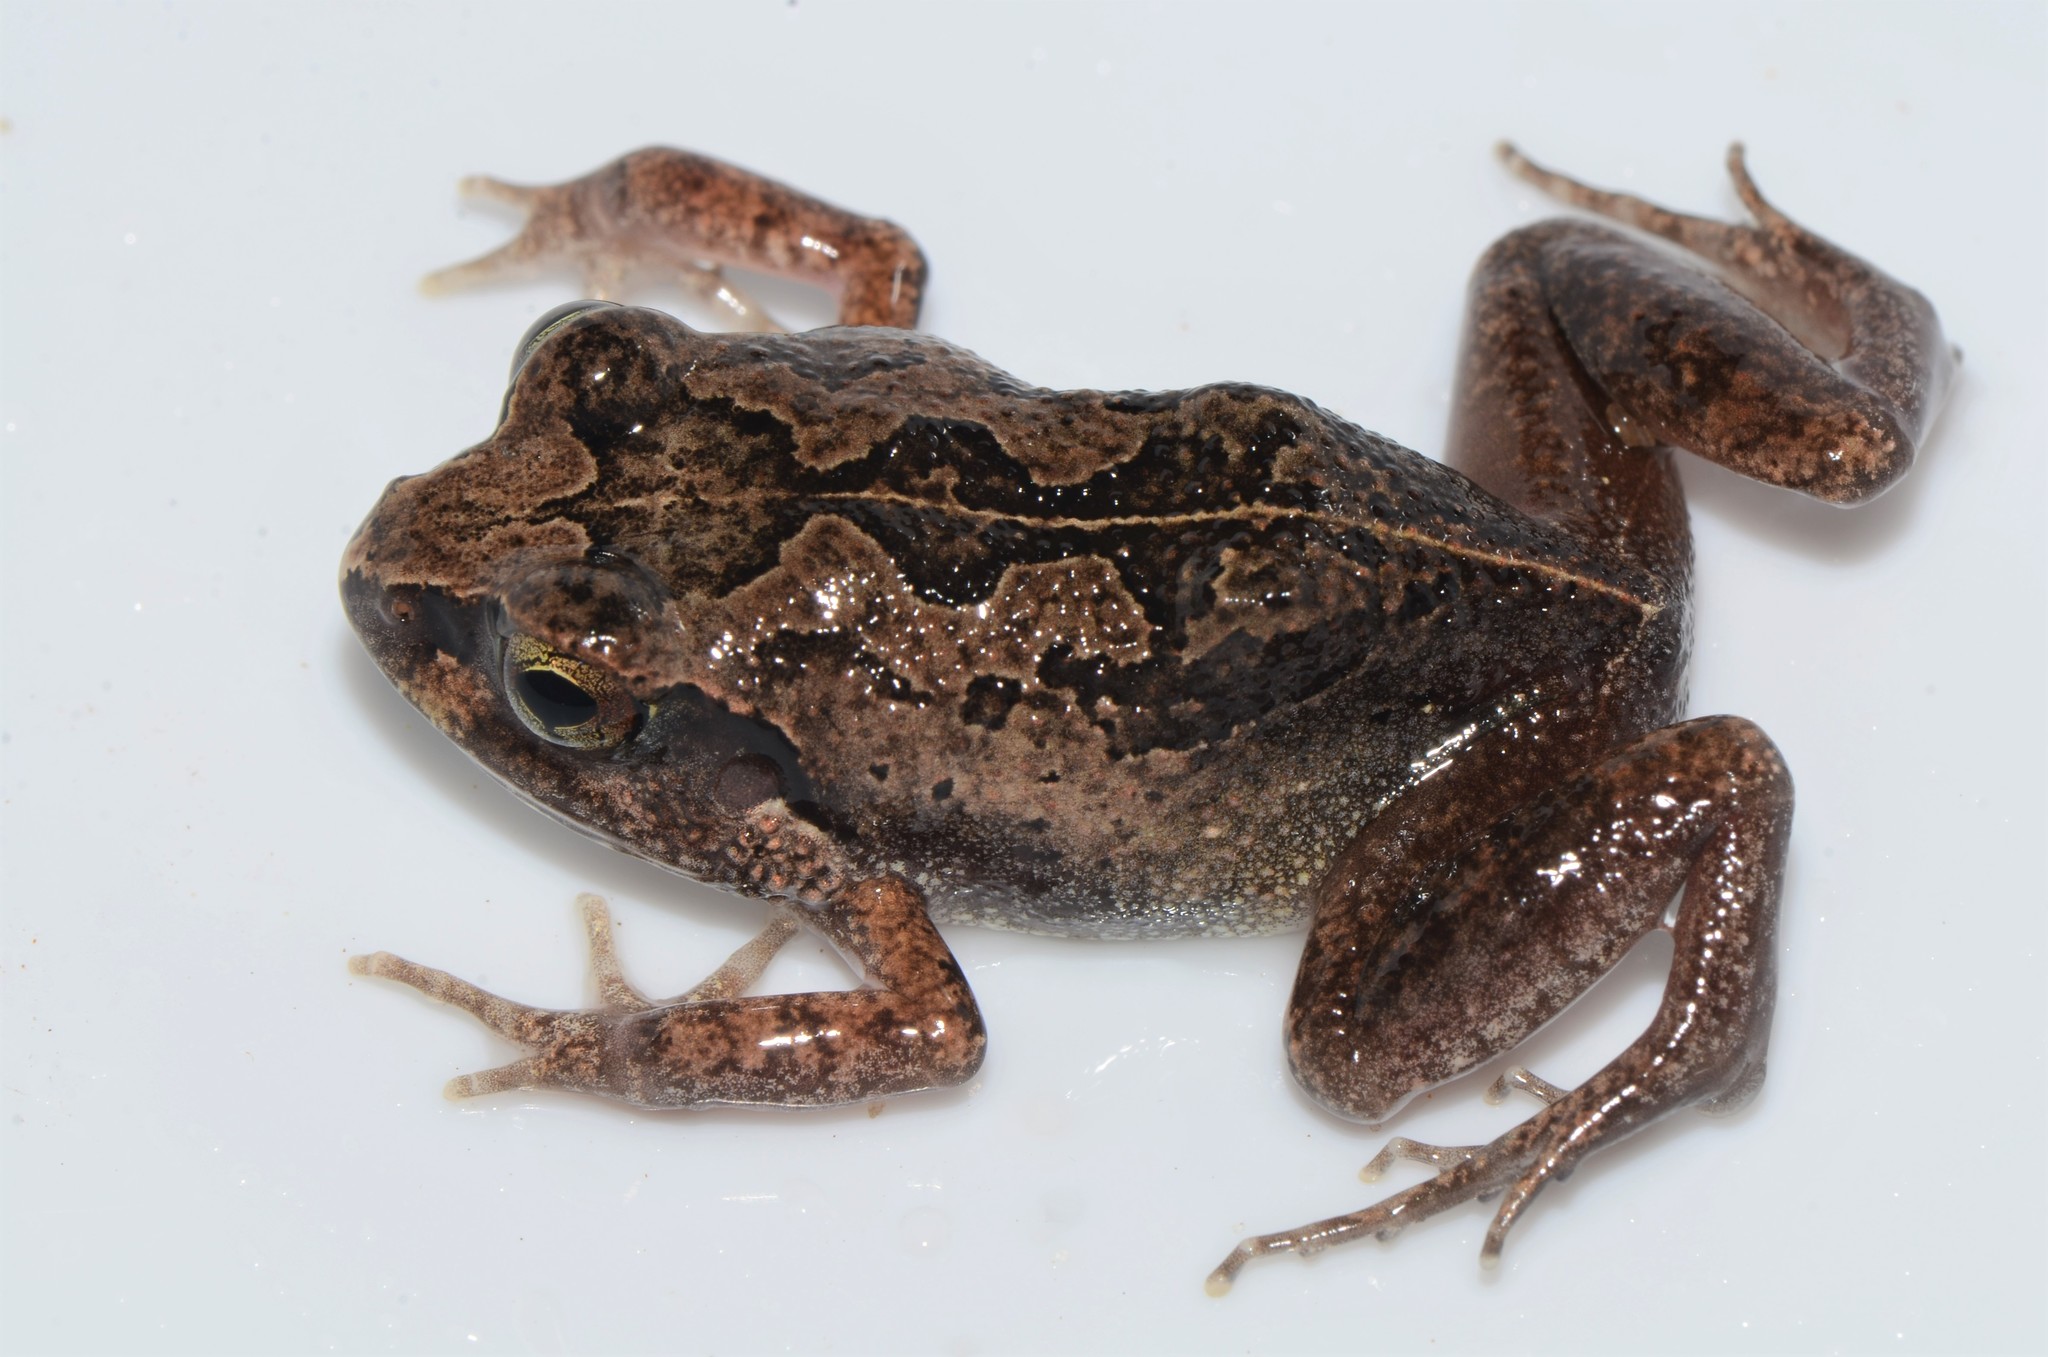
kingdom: Animalia
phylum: Chordata
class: Amphibia
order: Anura
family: Arthroleptidae
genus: Arthroleptis
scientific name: Arthroleptis stenodactylus
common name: Dune squeaker
